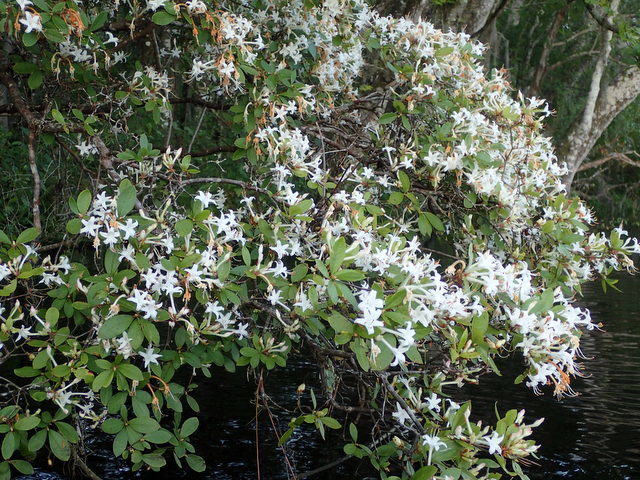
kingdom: Plantae
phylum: Tracheophyta
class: Magnoliopsida
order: Ericales
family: Ericaceae
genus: Rhododendron
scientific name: Rhododendron serrulatum
